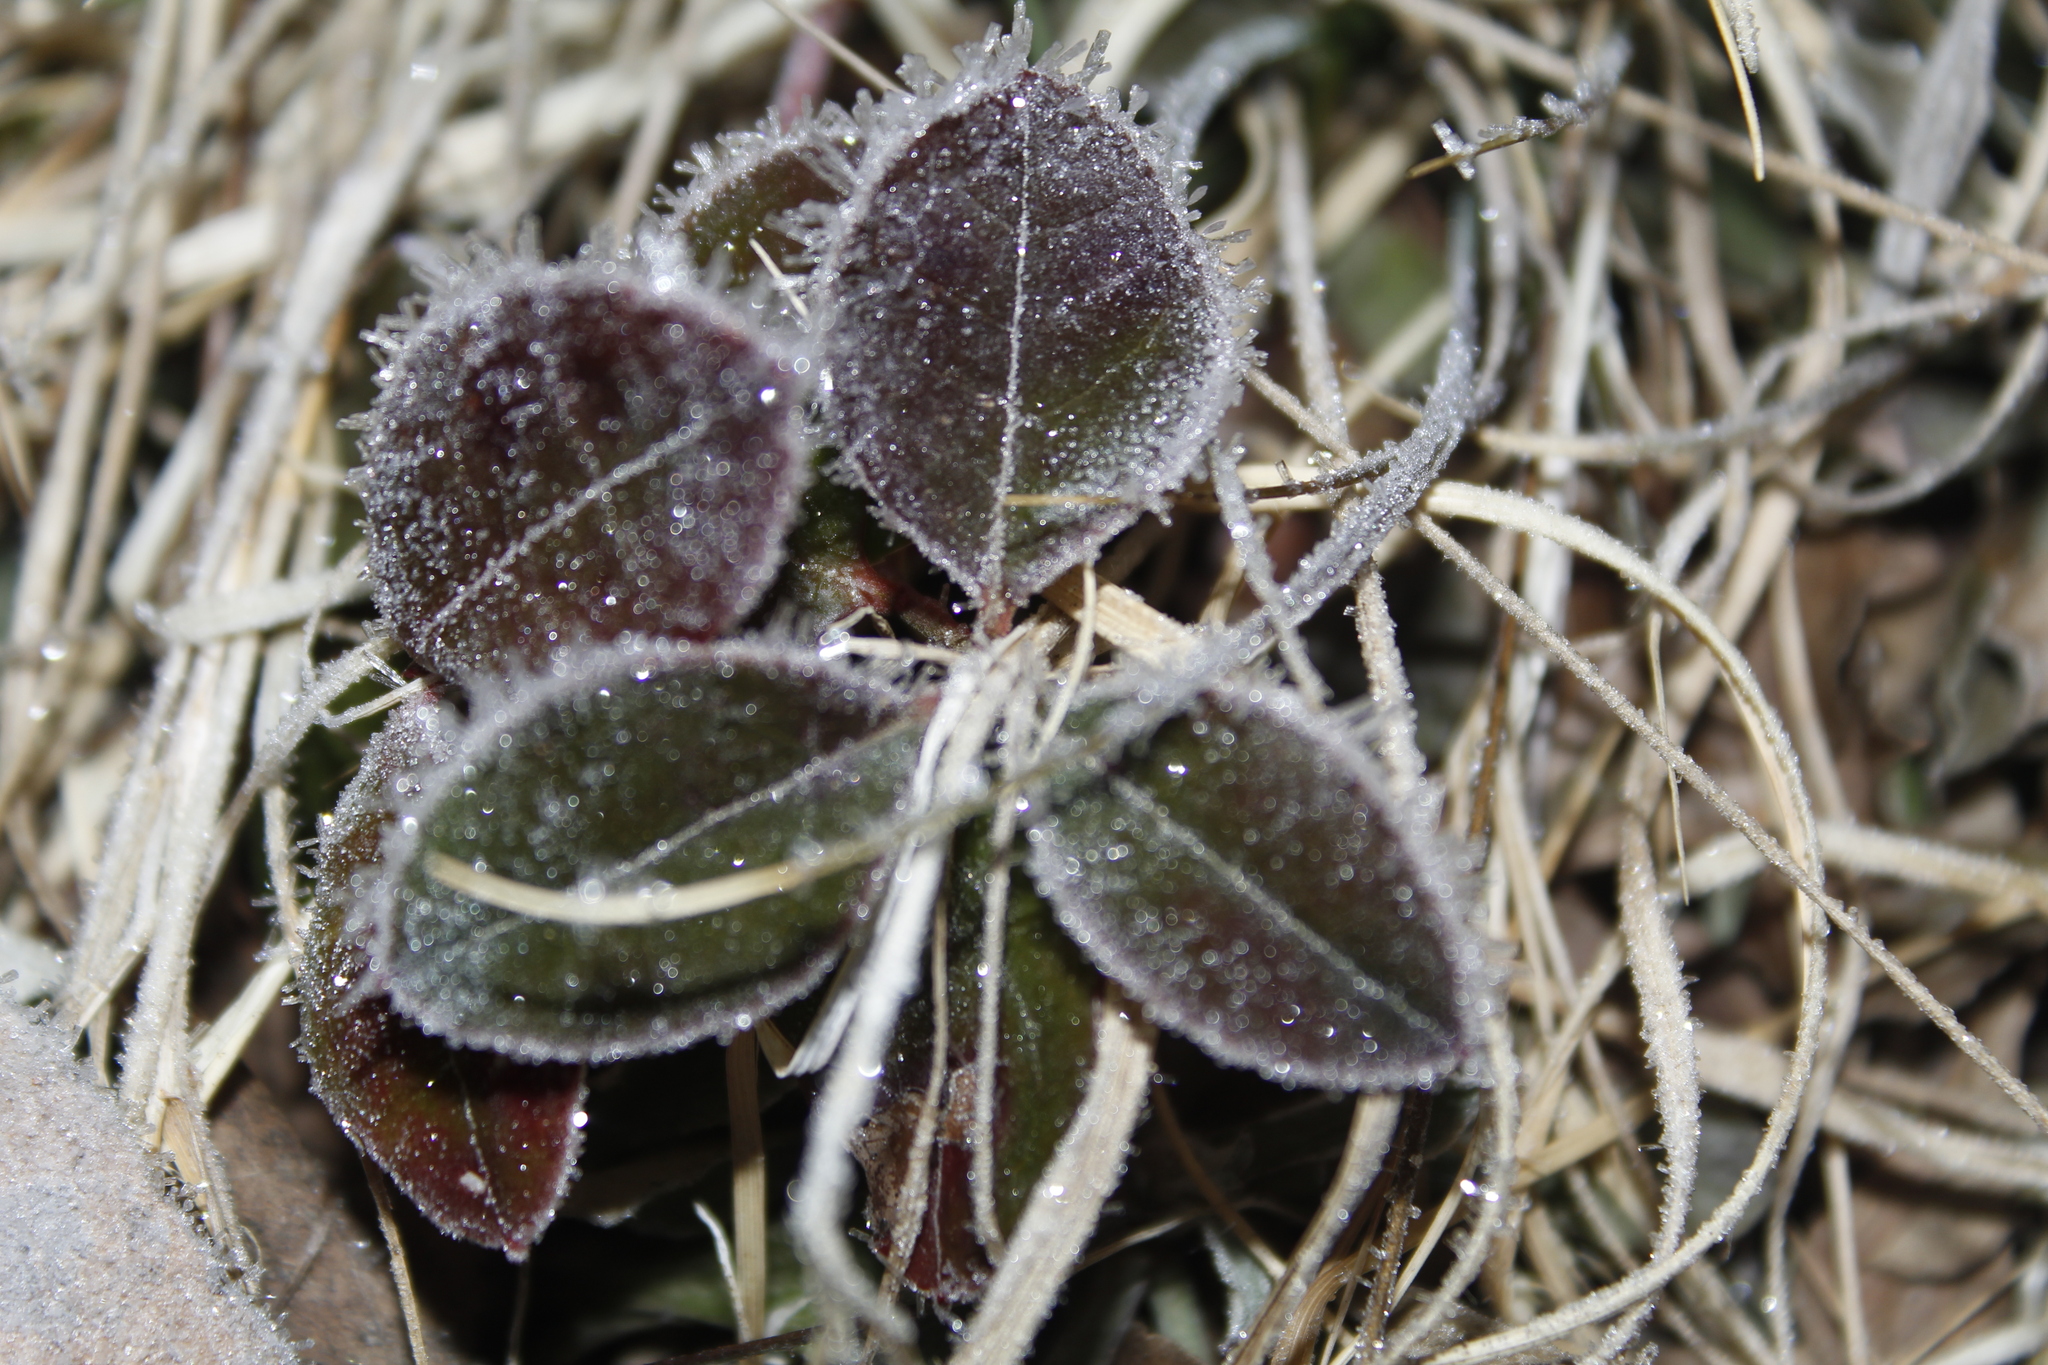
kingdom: Plantae
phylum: Tracheophyta
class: Magnoliopsida
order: Ericales
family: Ericaceae
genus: Gaultheria
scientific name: Gaultheria procumbens
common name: Checkerberry
